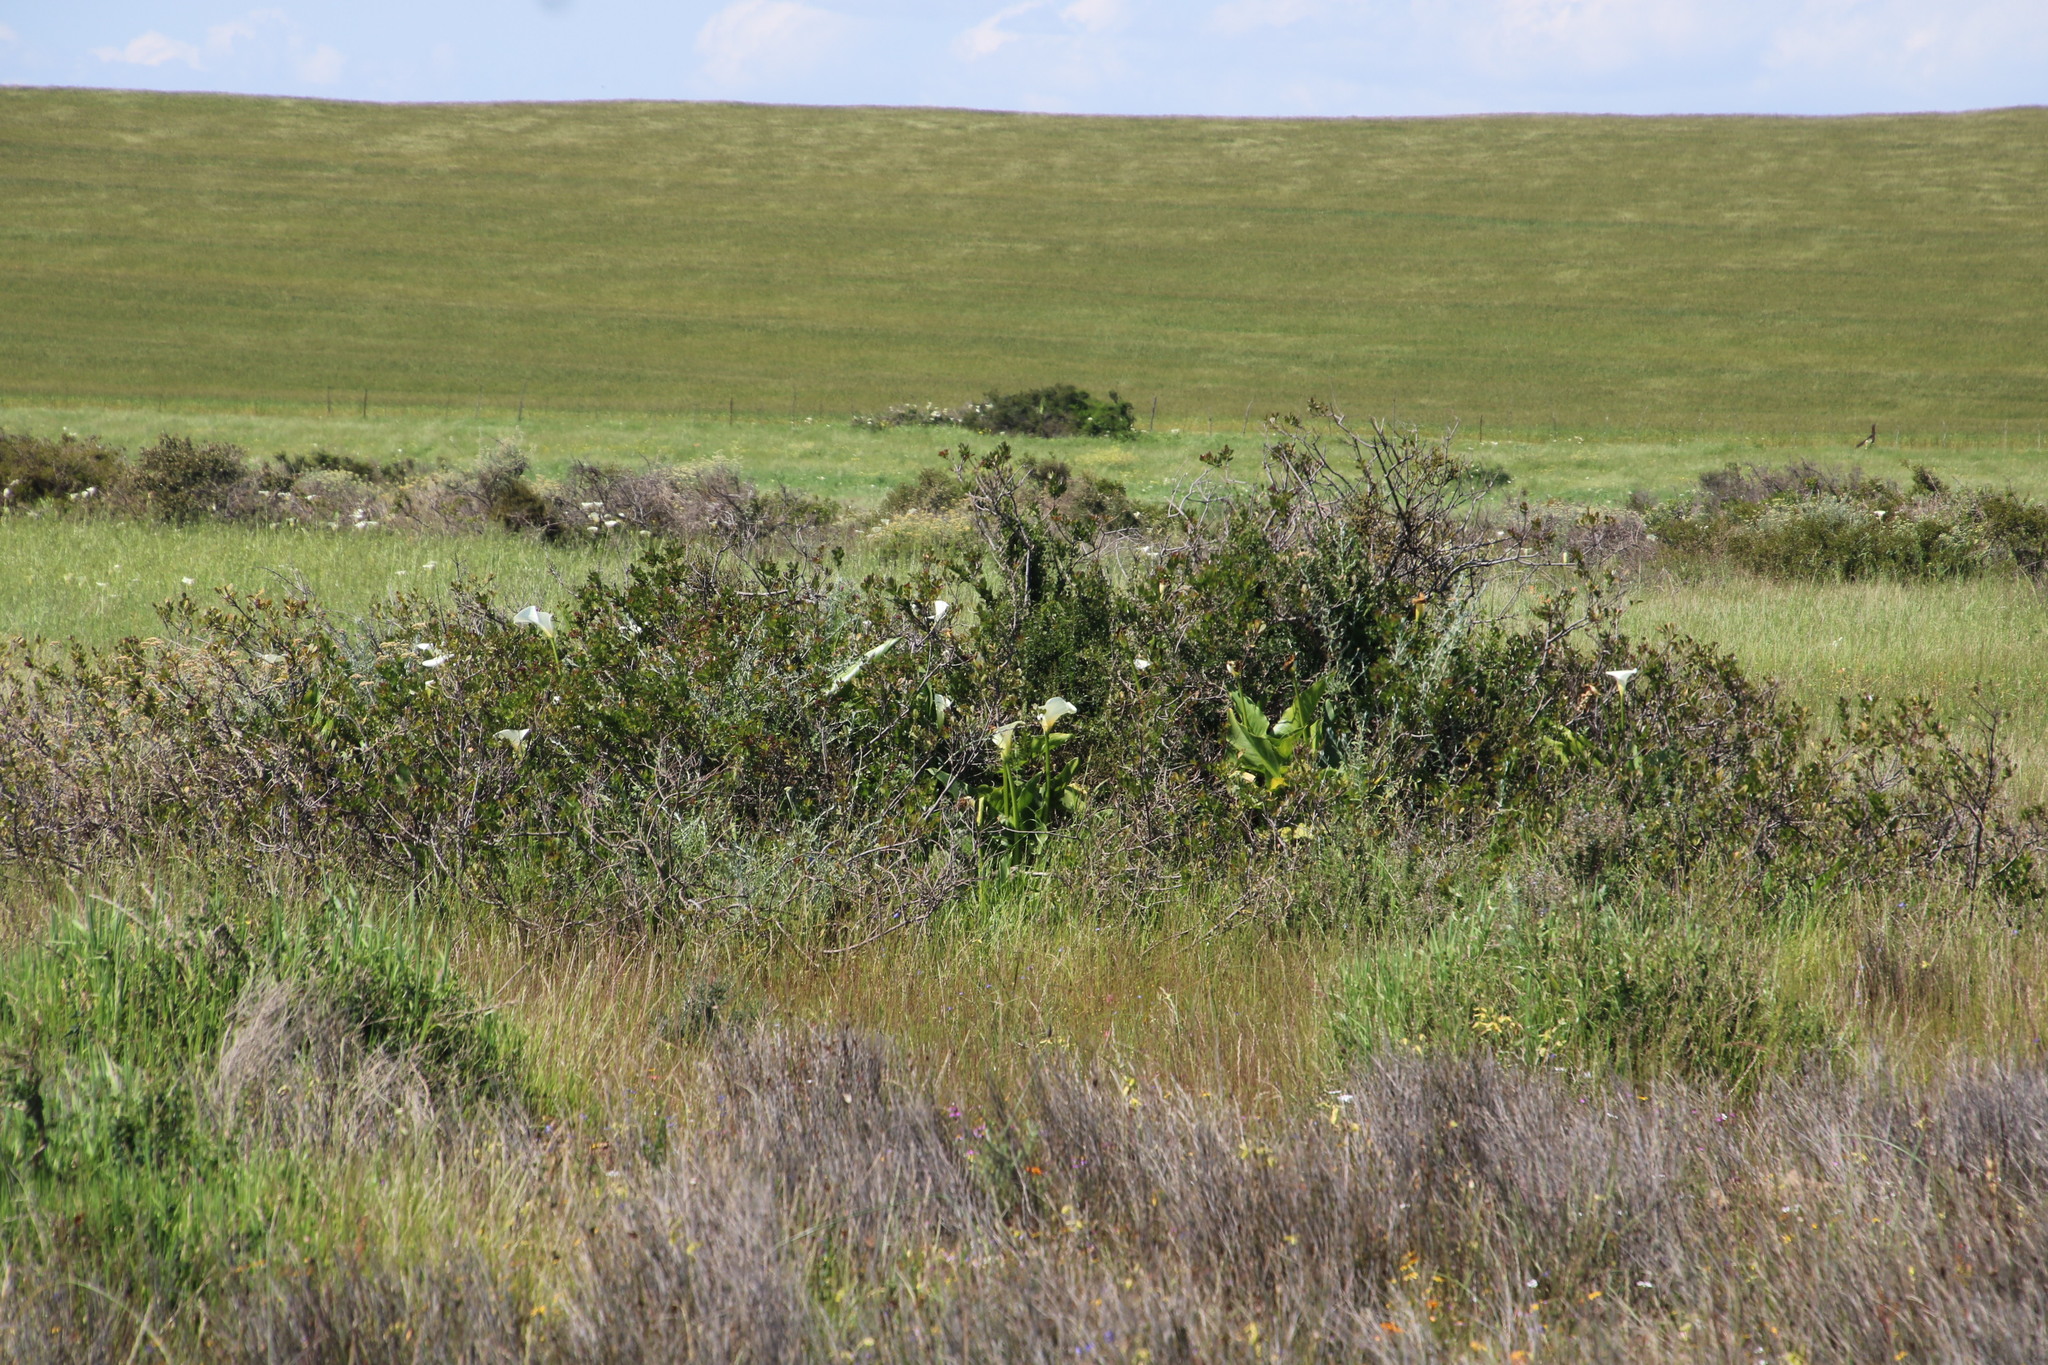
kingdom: Plantae
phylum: Tracheophyta
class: Liliopsida
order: Alismatales
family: Araceae
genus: Zantedeschia
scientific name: Zantedeschia aethiopica
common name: Altar-lily
